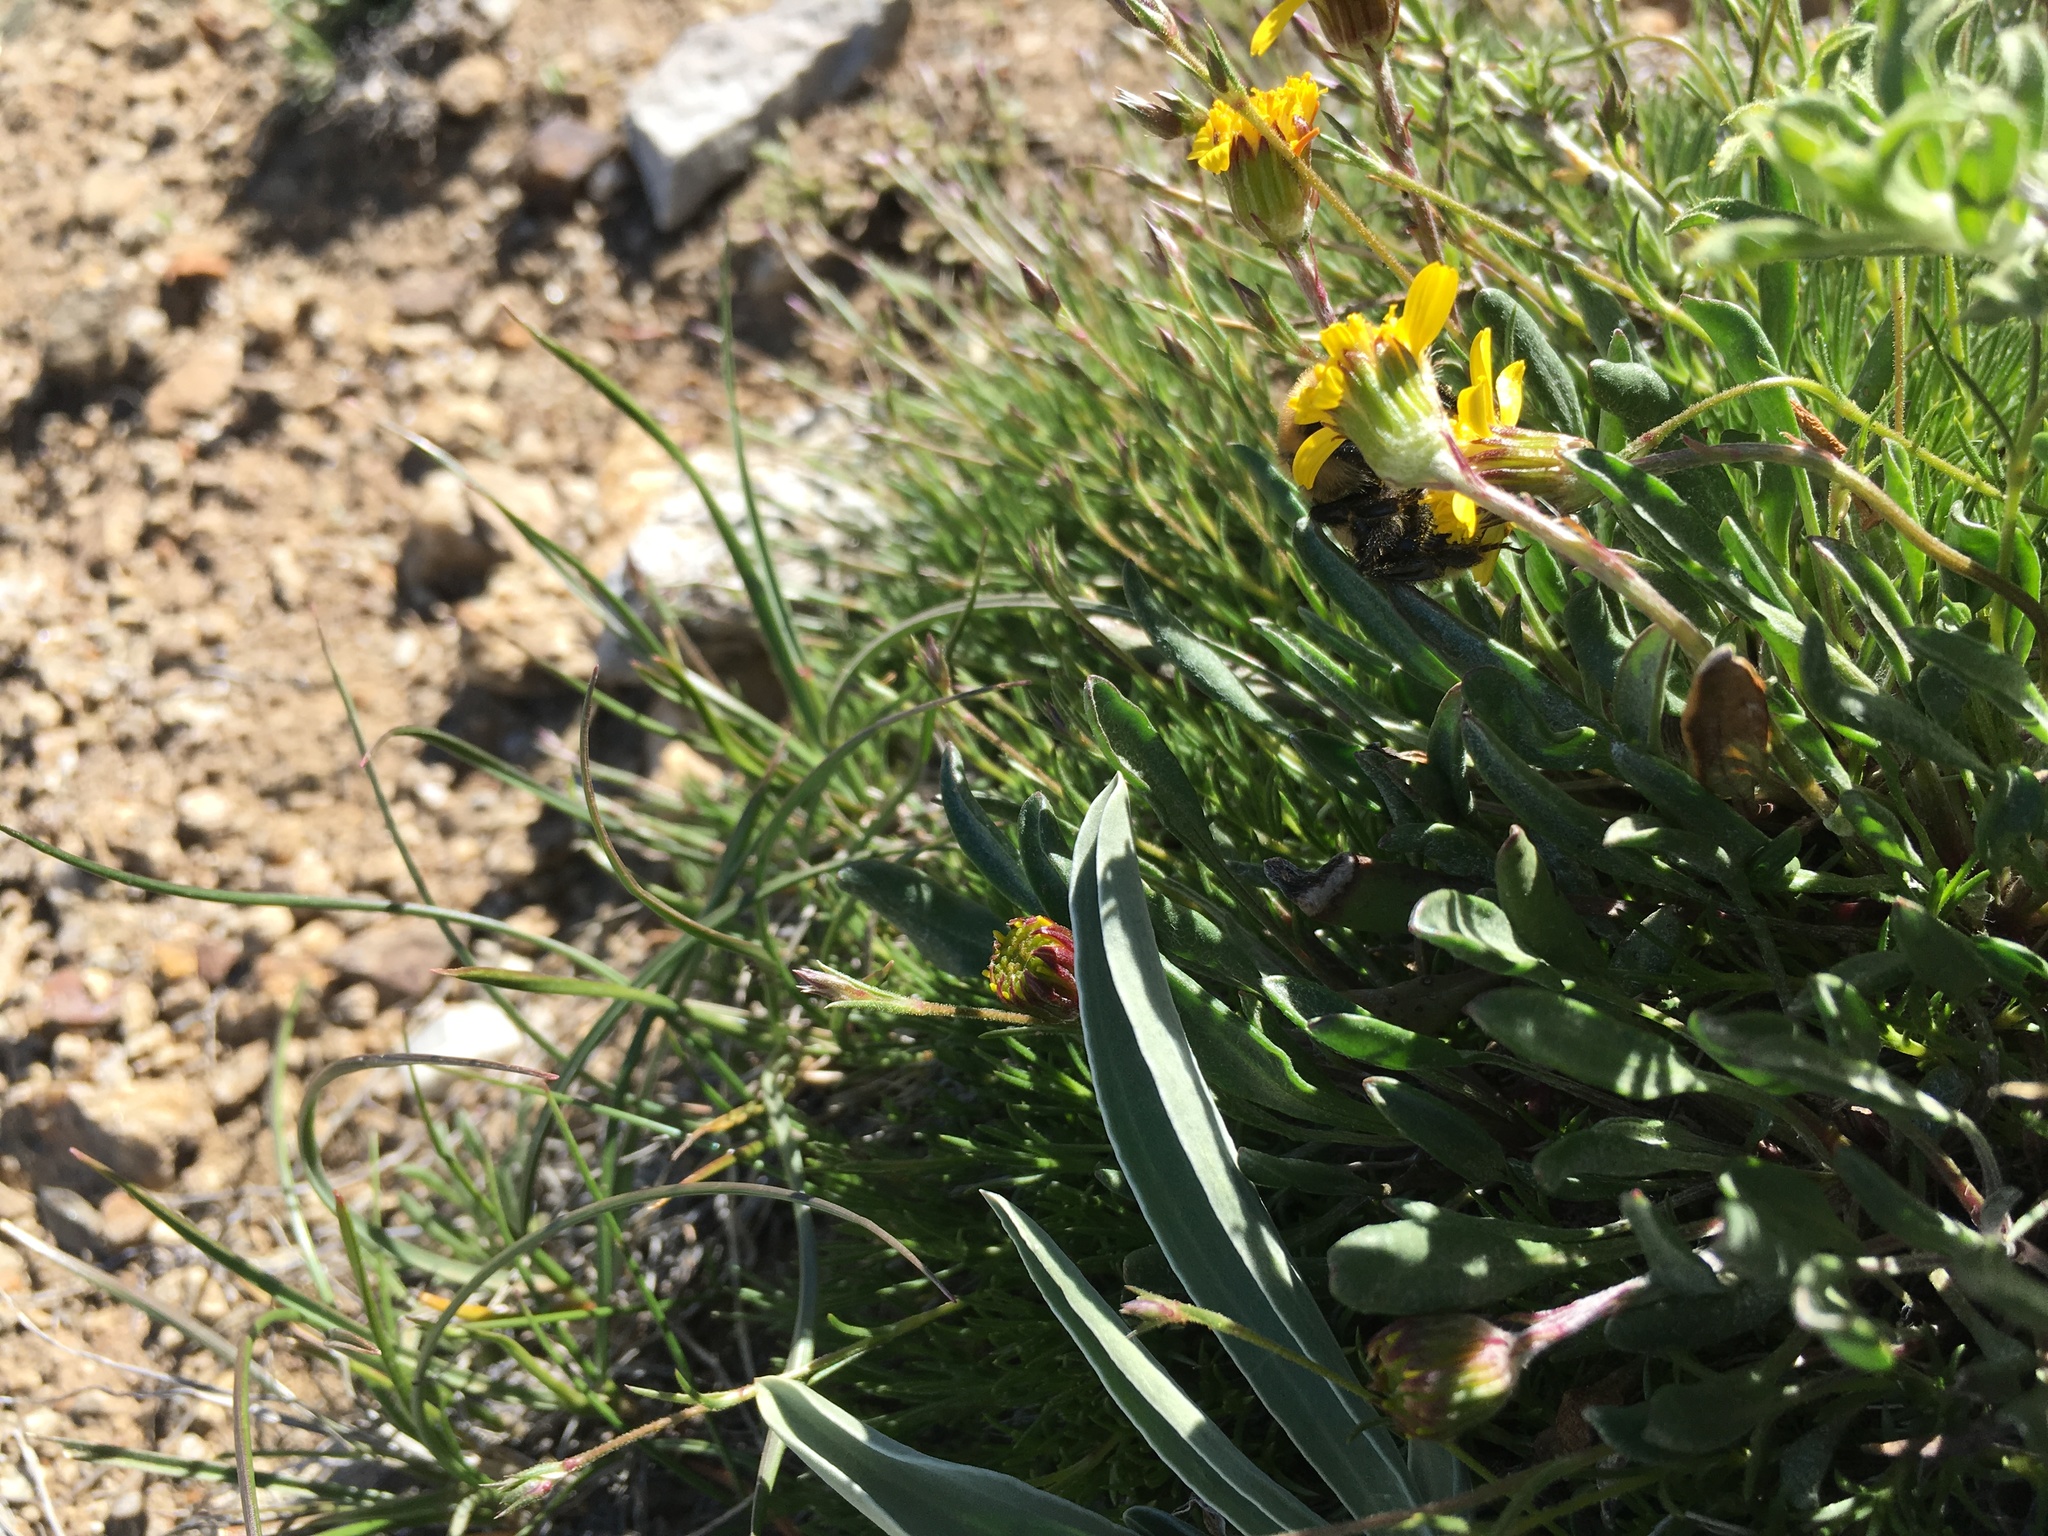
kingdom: Plantae
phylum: Tracheophyta
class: Magnoliopsida
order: Asterales
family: Asteraceae
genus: Packera
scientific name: Packera werneriifolia
